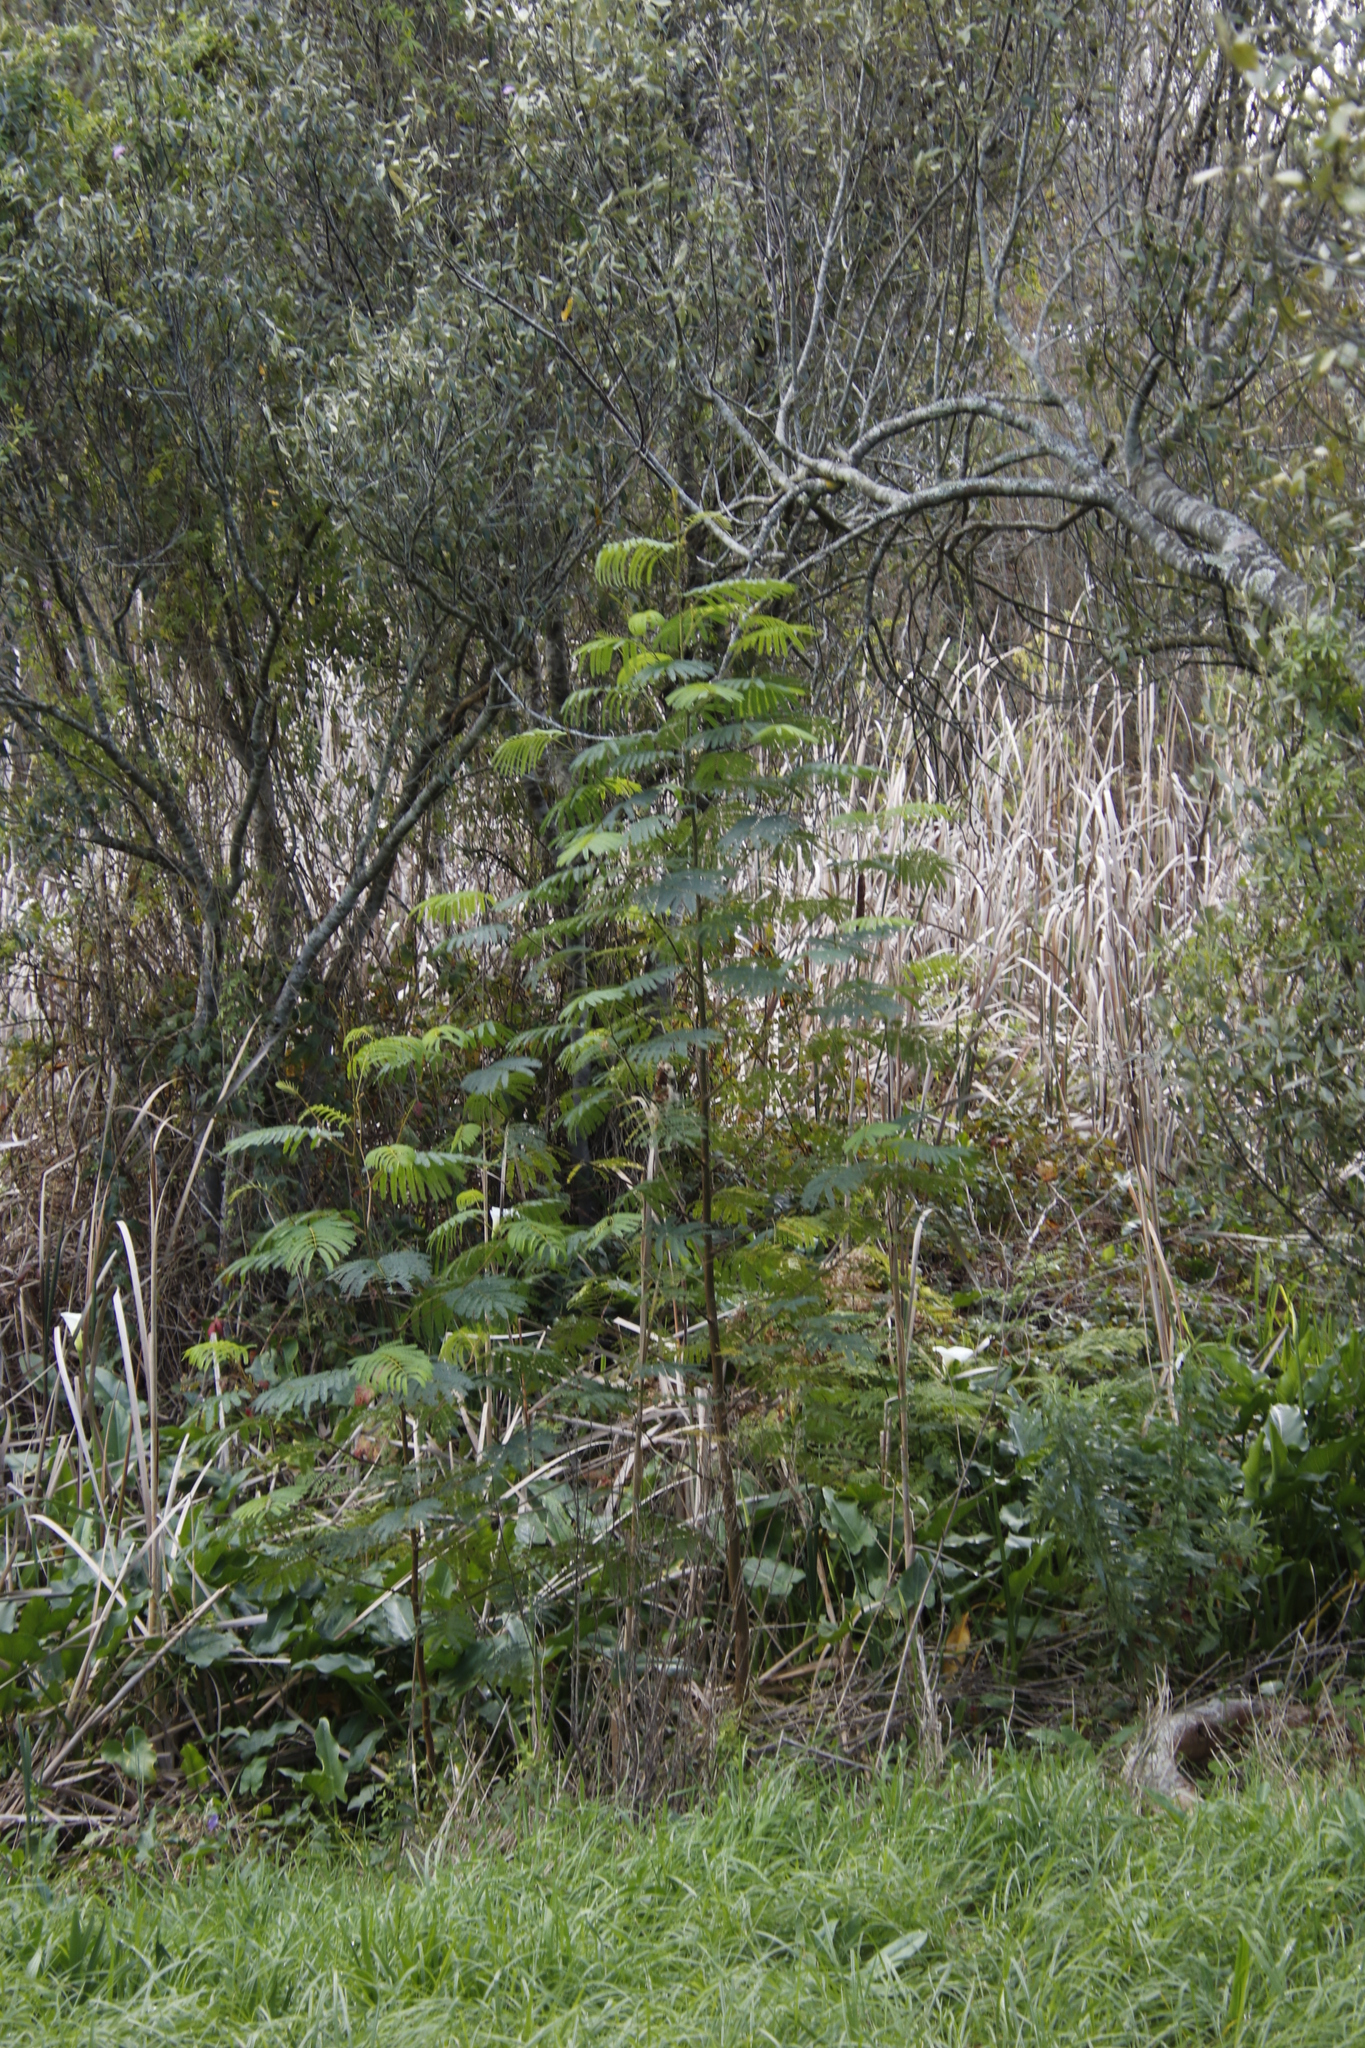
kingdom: Plantae
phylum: Tracheophyta
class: Magnoliopsida
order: Fabales
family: Fabaceae
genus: Paraserianthes
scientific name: Paraserianthes lophantha
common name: Plume albizia
